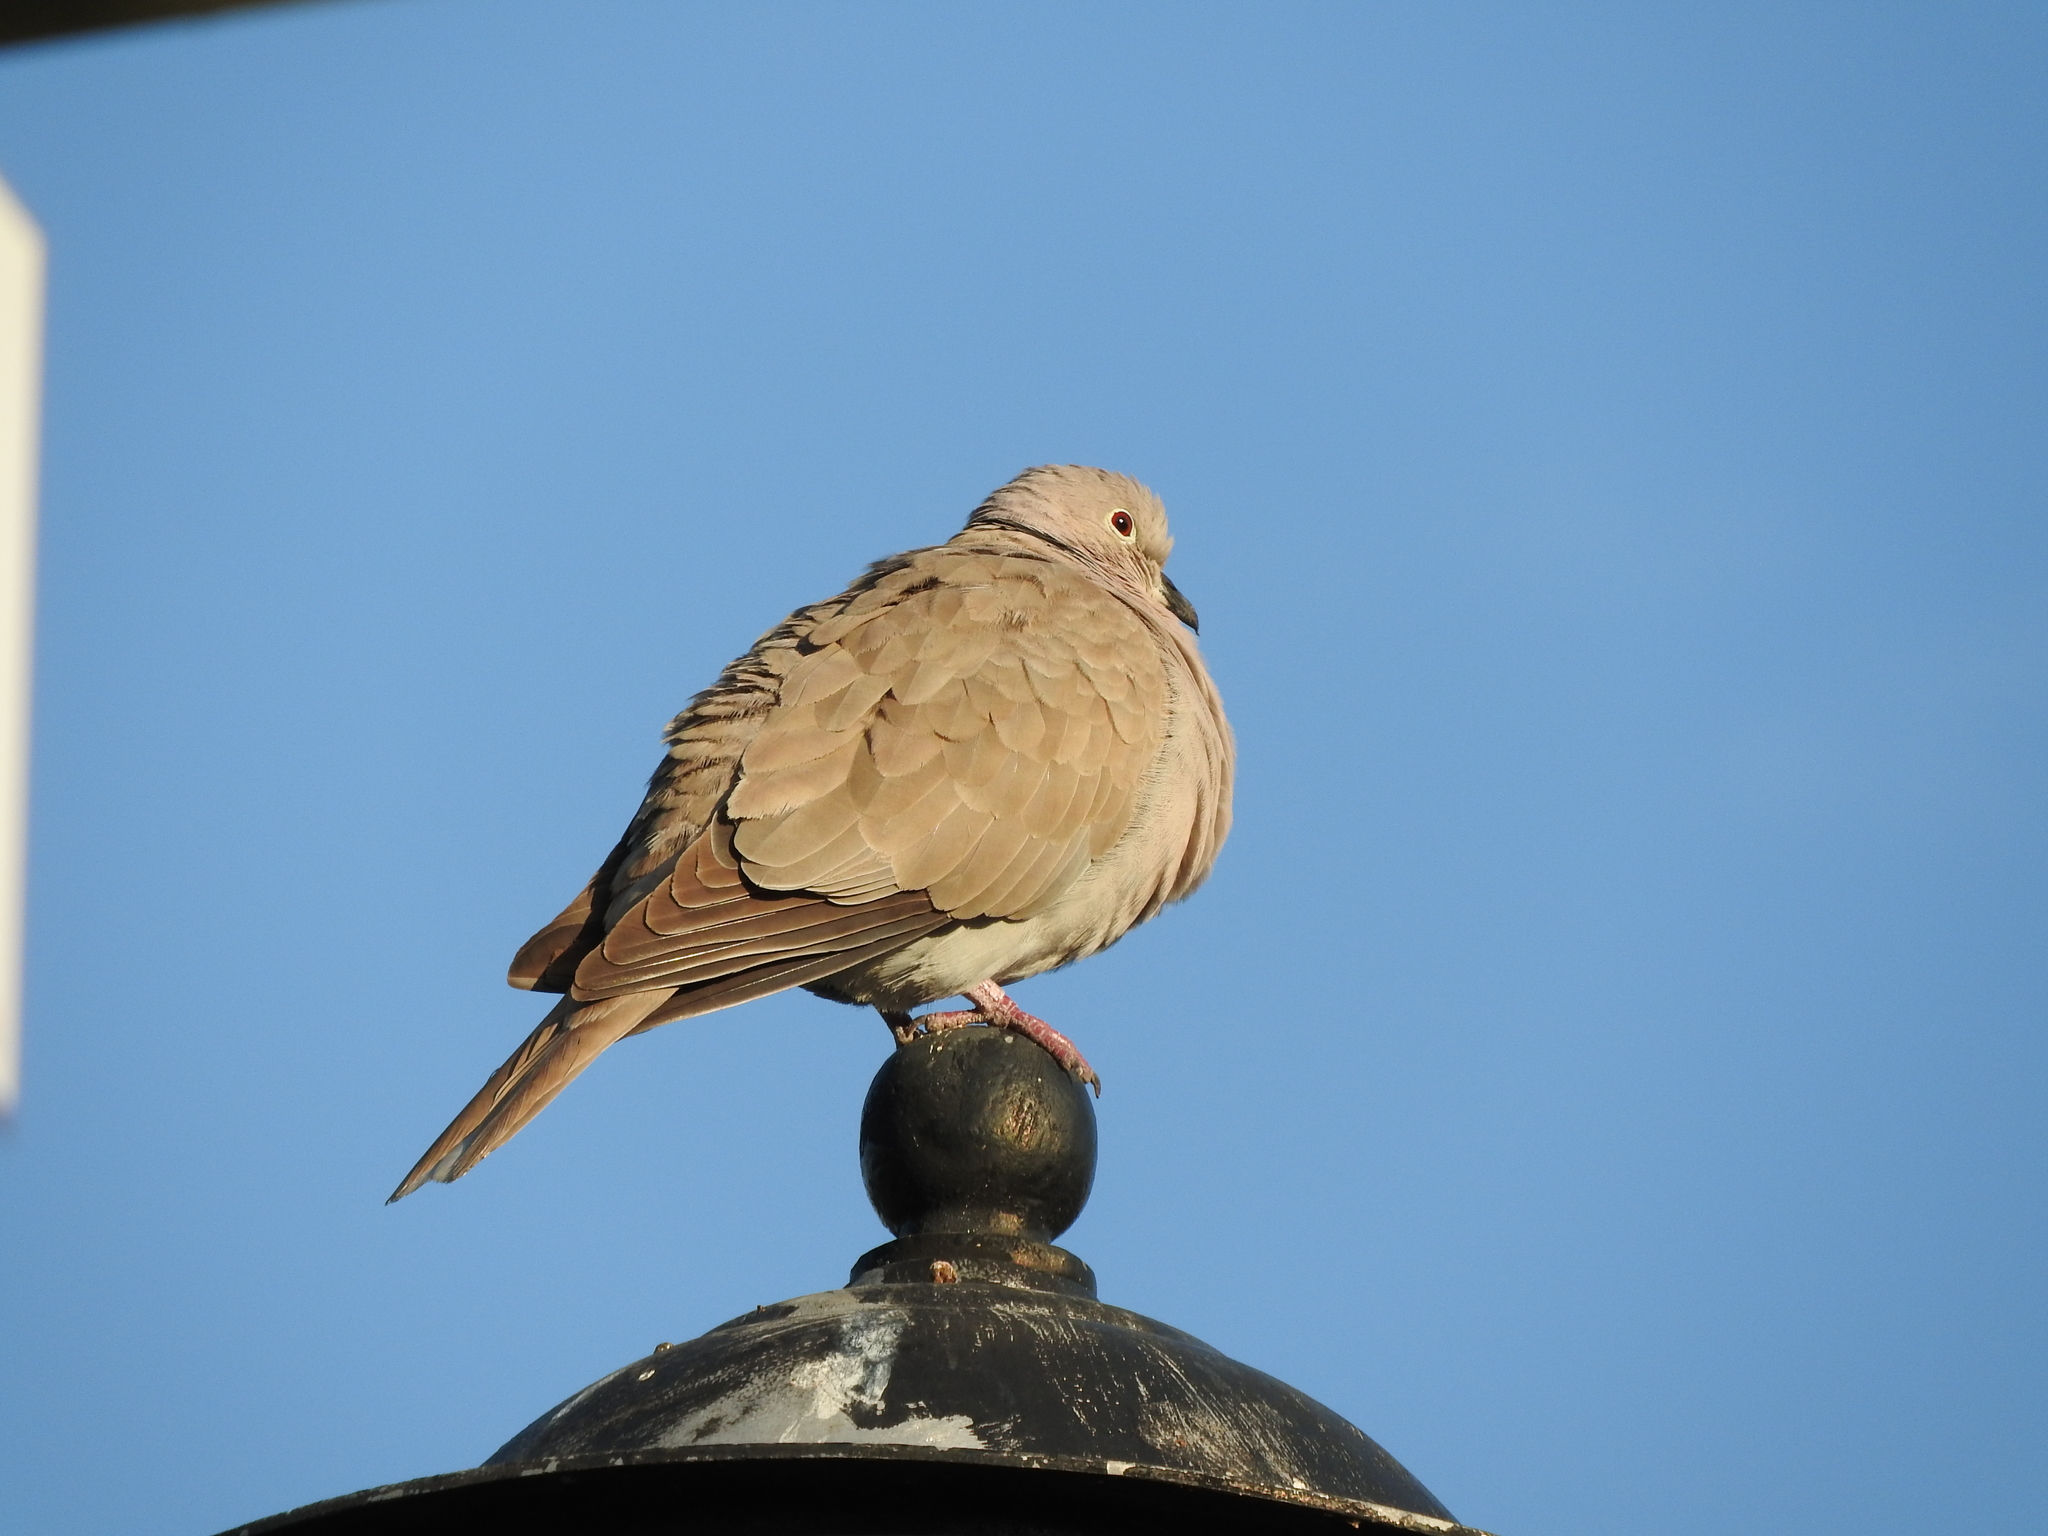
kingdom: Animalia
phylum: Chordata
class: Aves
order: Columbiformes
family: Columbidae
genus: Streptopelia
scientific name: Streptopelia decaocto
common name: Eurasian collared dove
